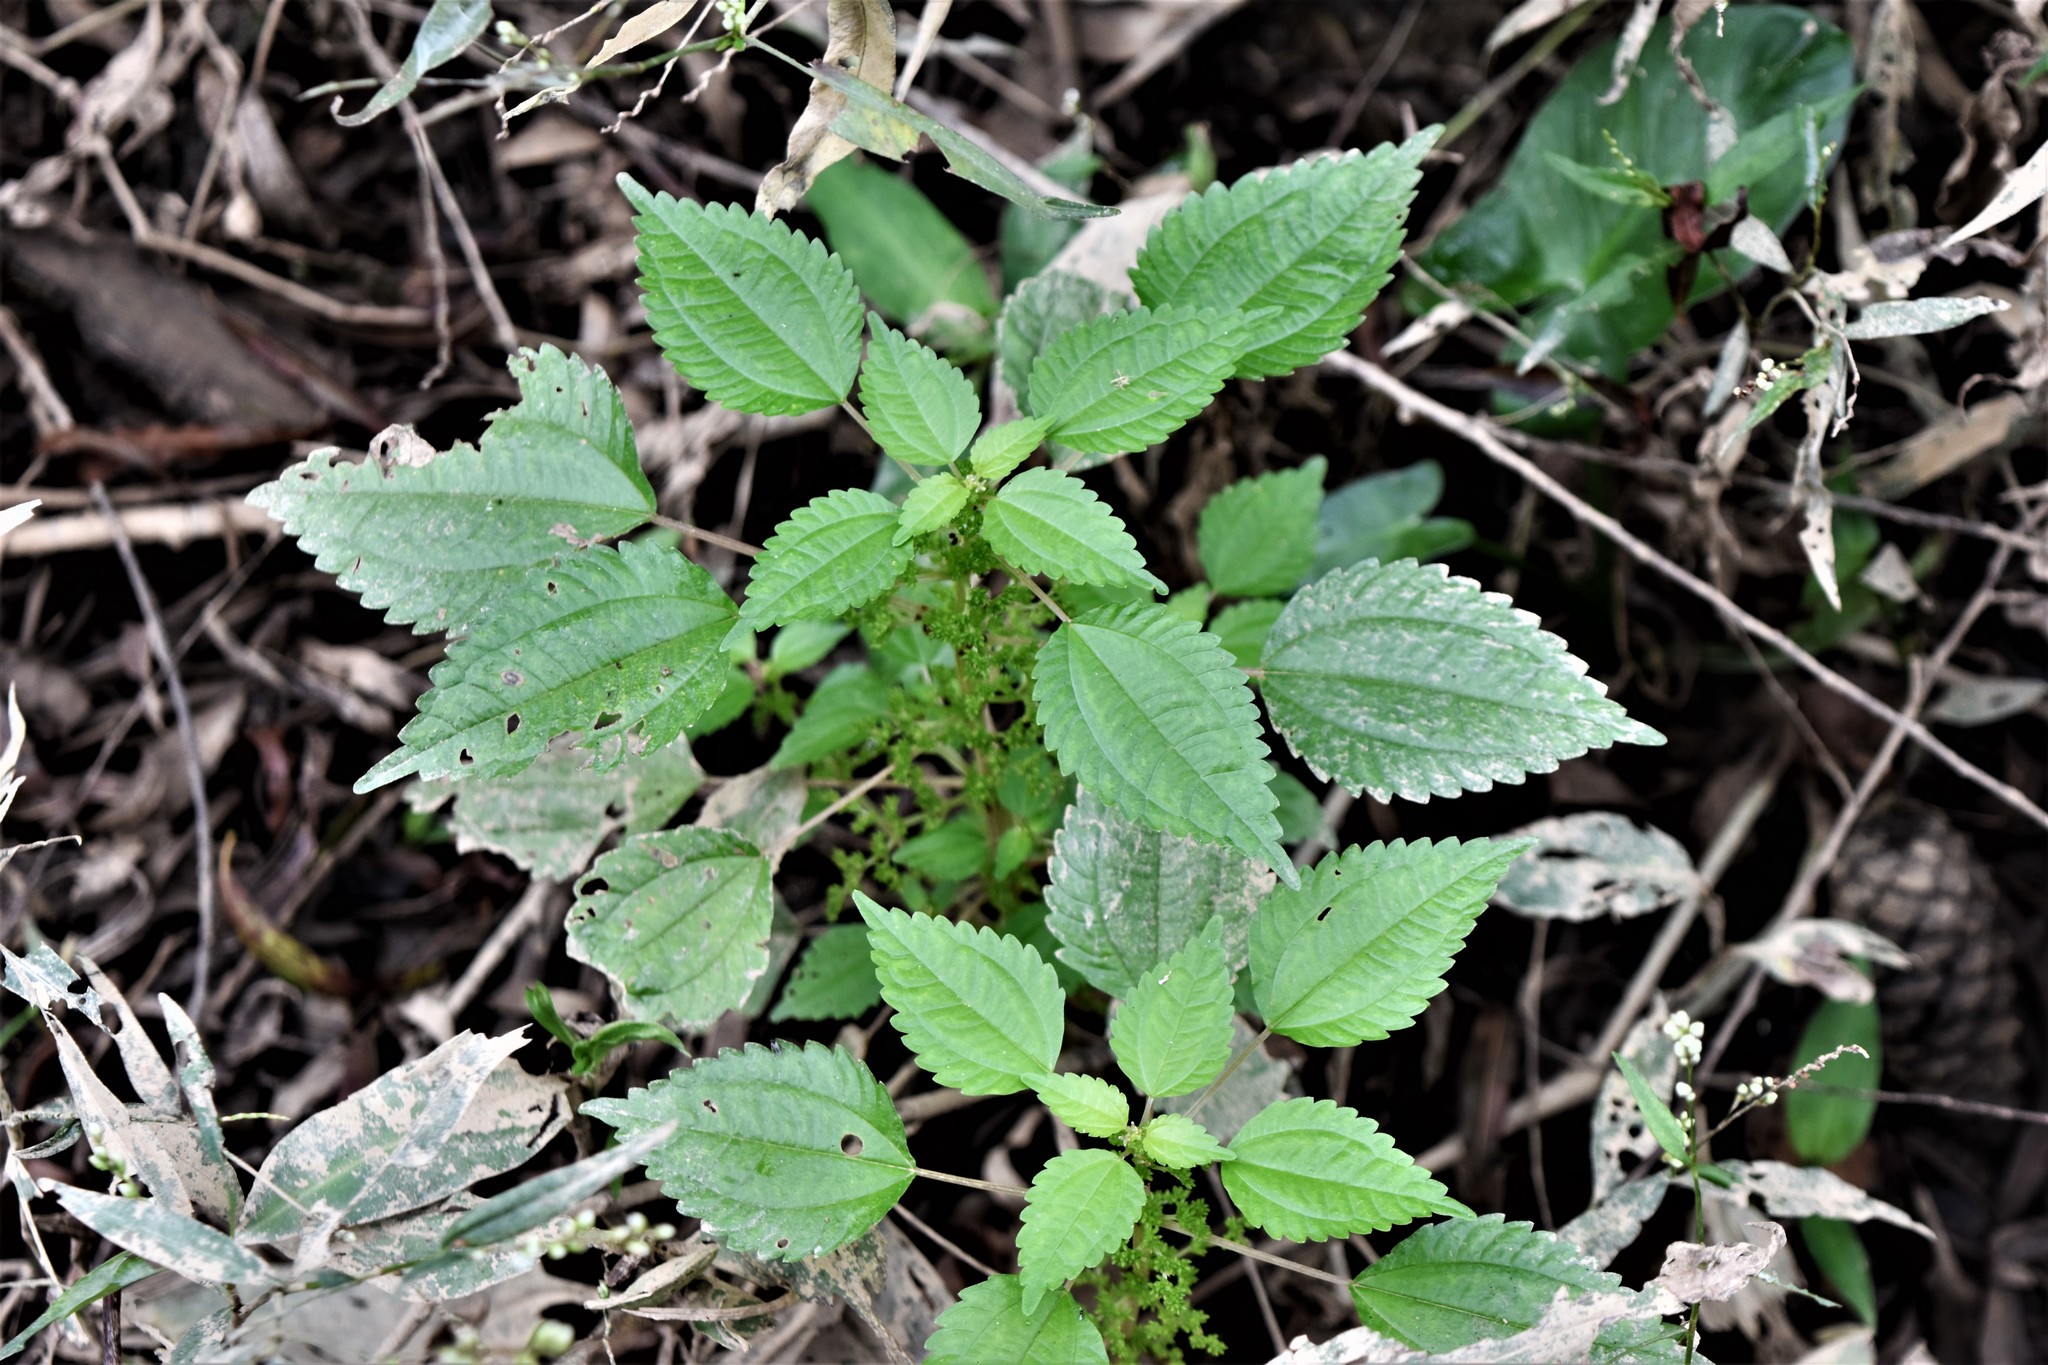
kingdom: Plantae
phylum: Tracheophyta
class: Magnoliopsida
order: Rosales
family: Urticaceae
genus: Pilea
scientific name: Pilea pumila
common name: Clearweed
